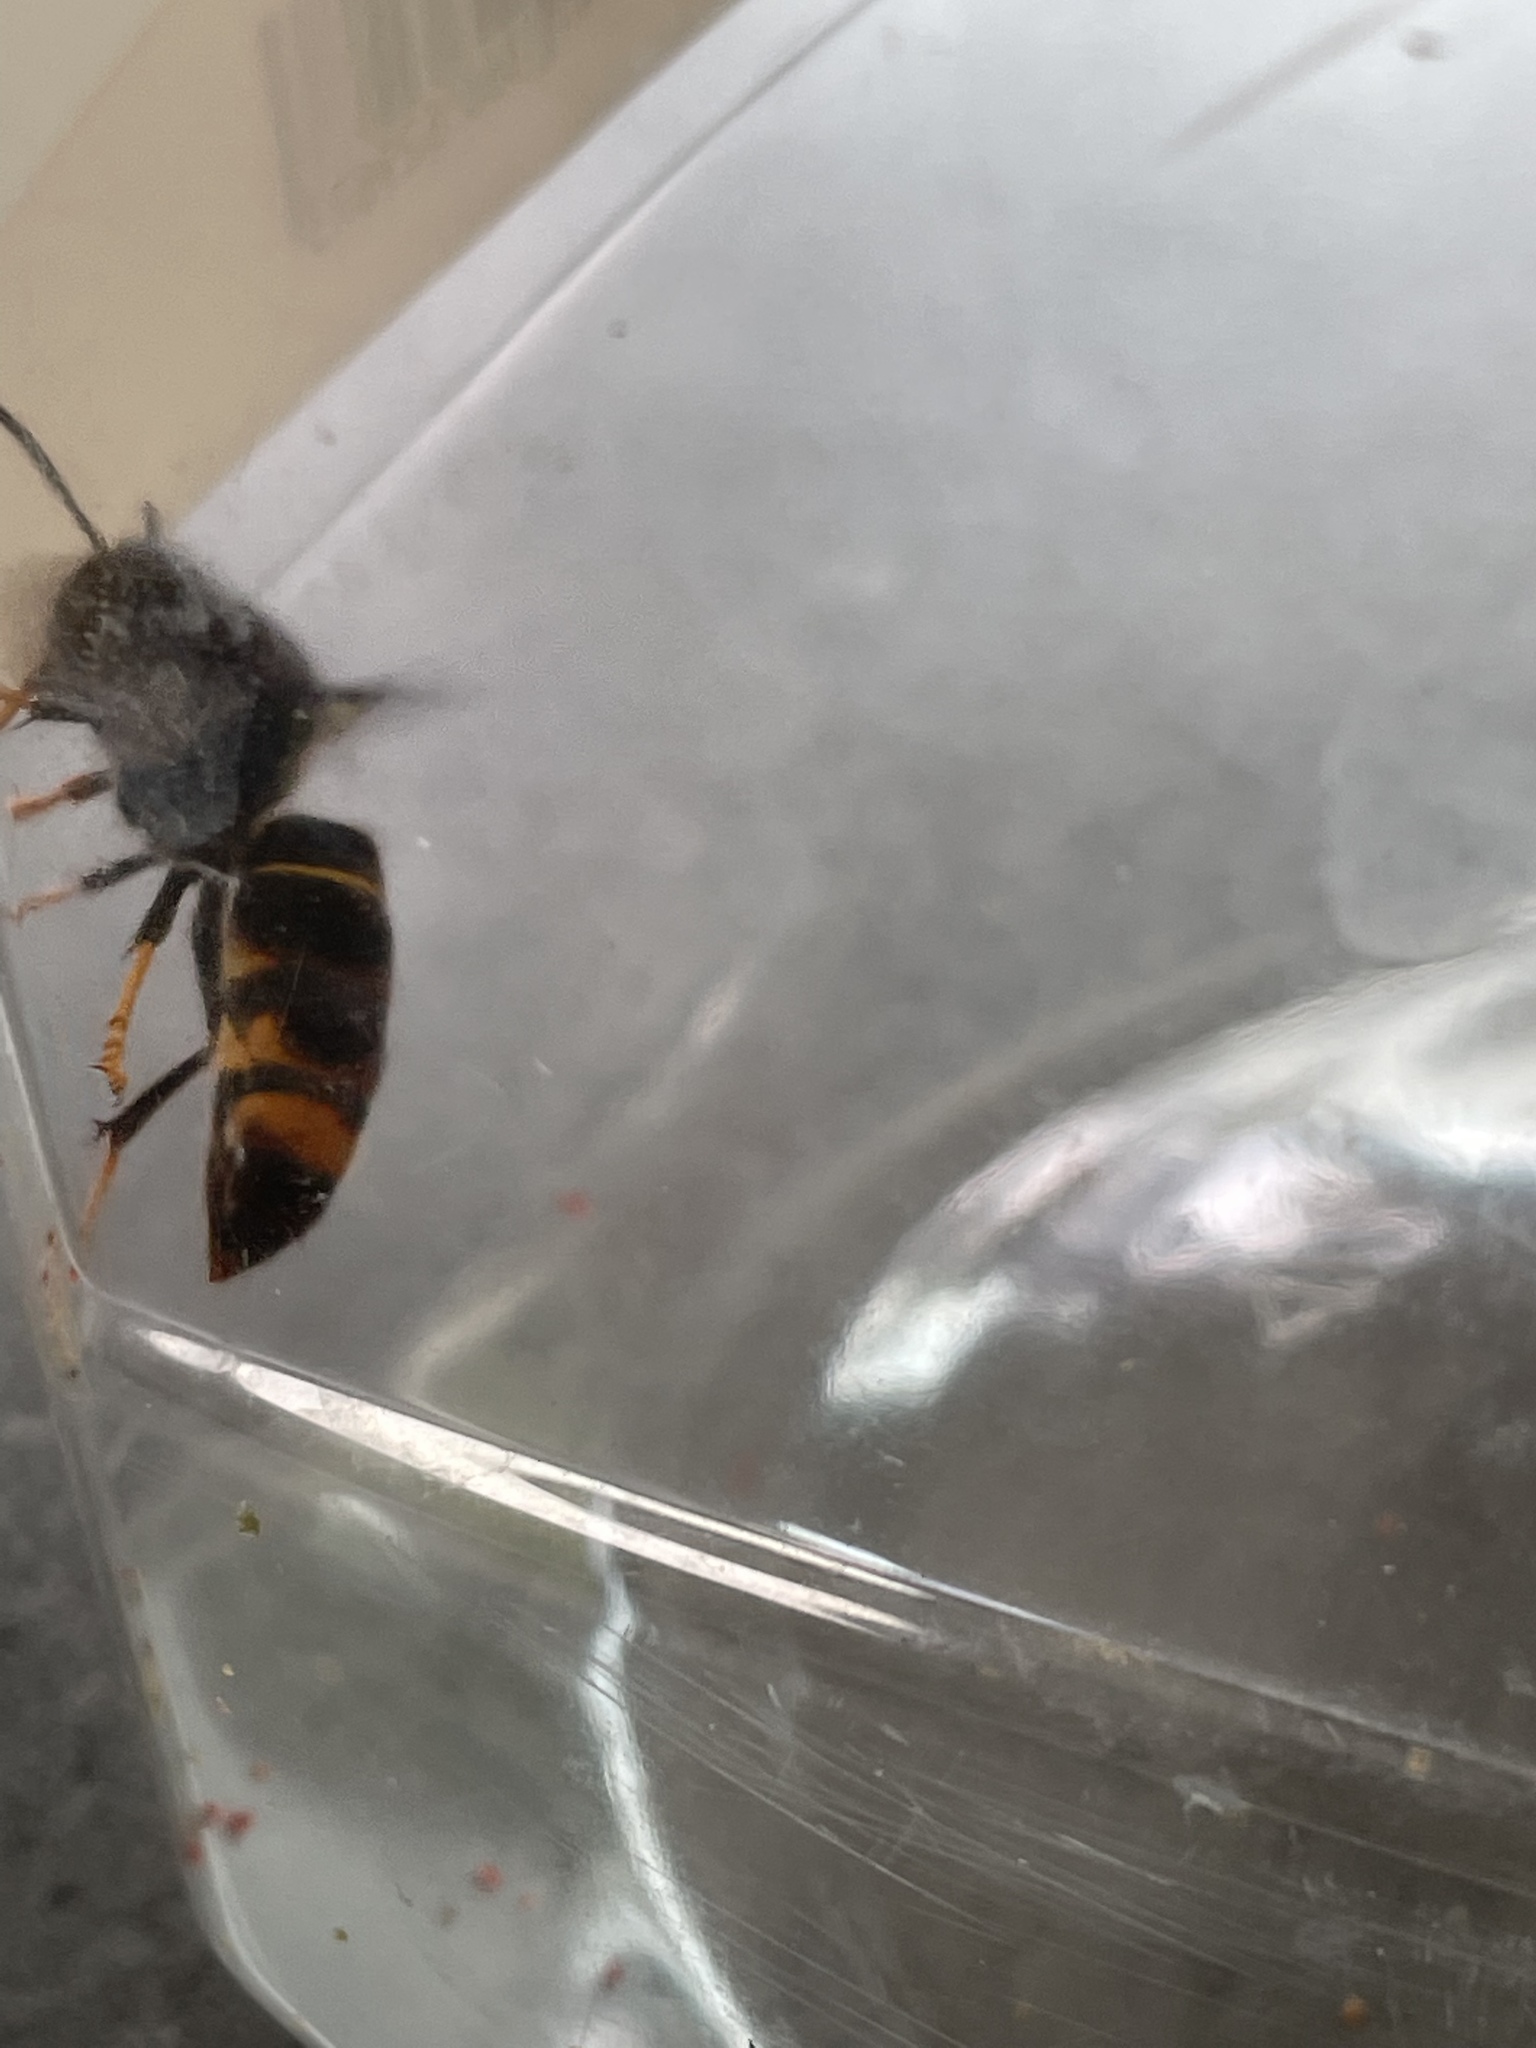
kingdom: Animalia
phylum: Arthropoda
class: Insecta
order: Hymenoptera
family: Vespidae
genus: Vespa
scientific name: Vespa velutina
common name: Asian hornet
